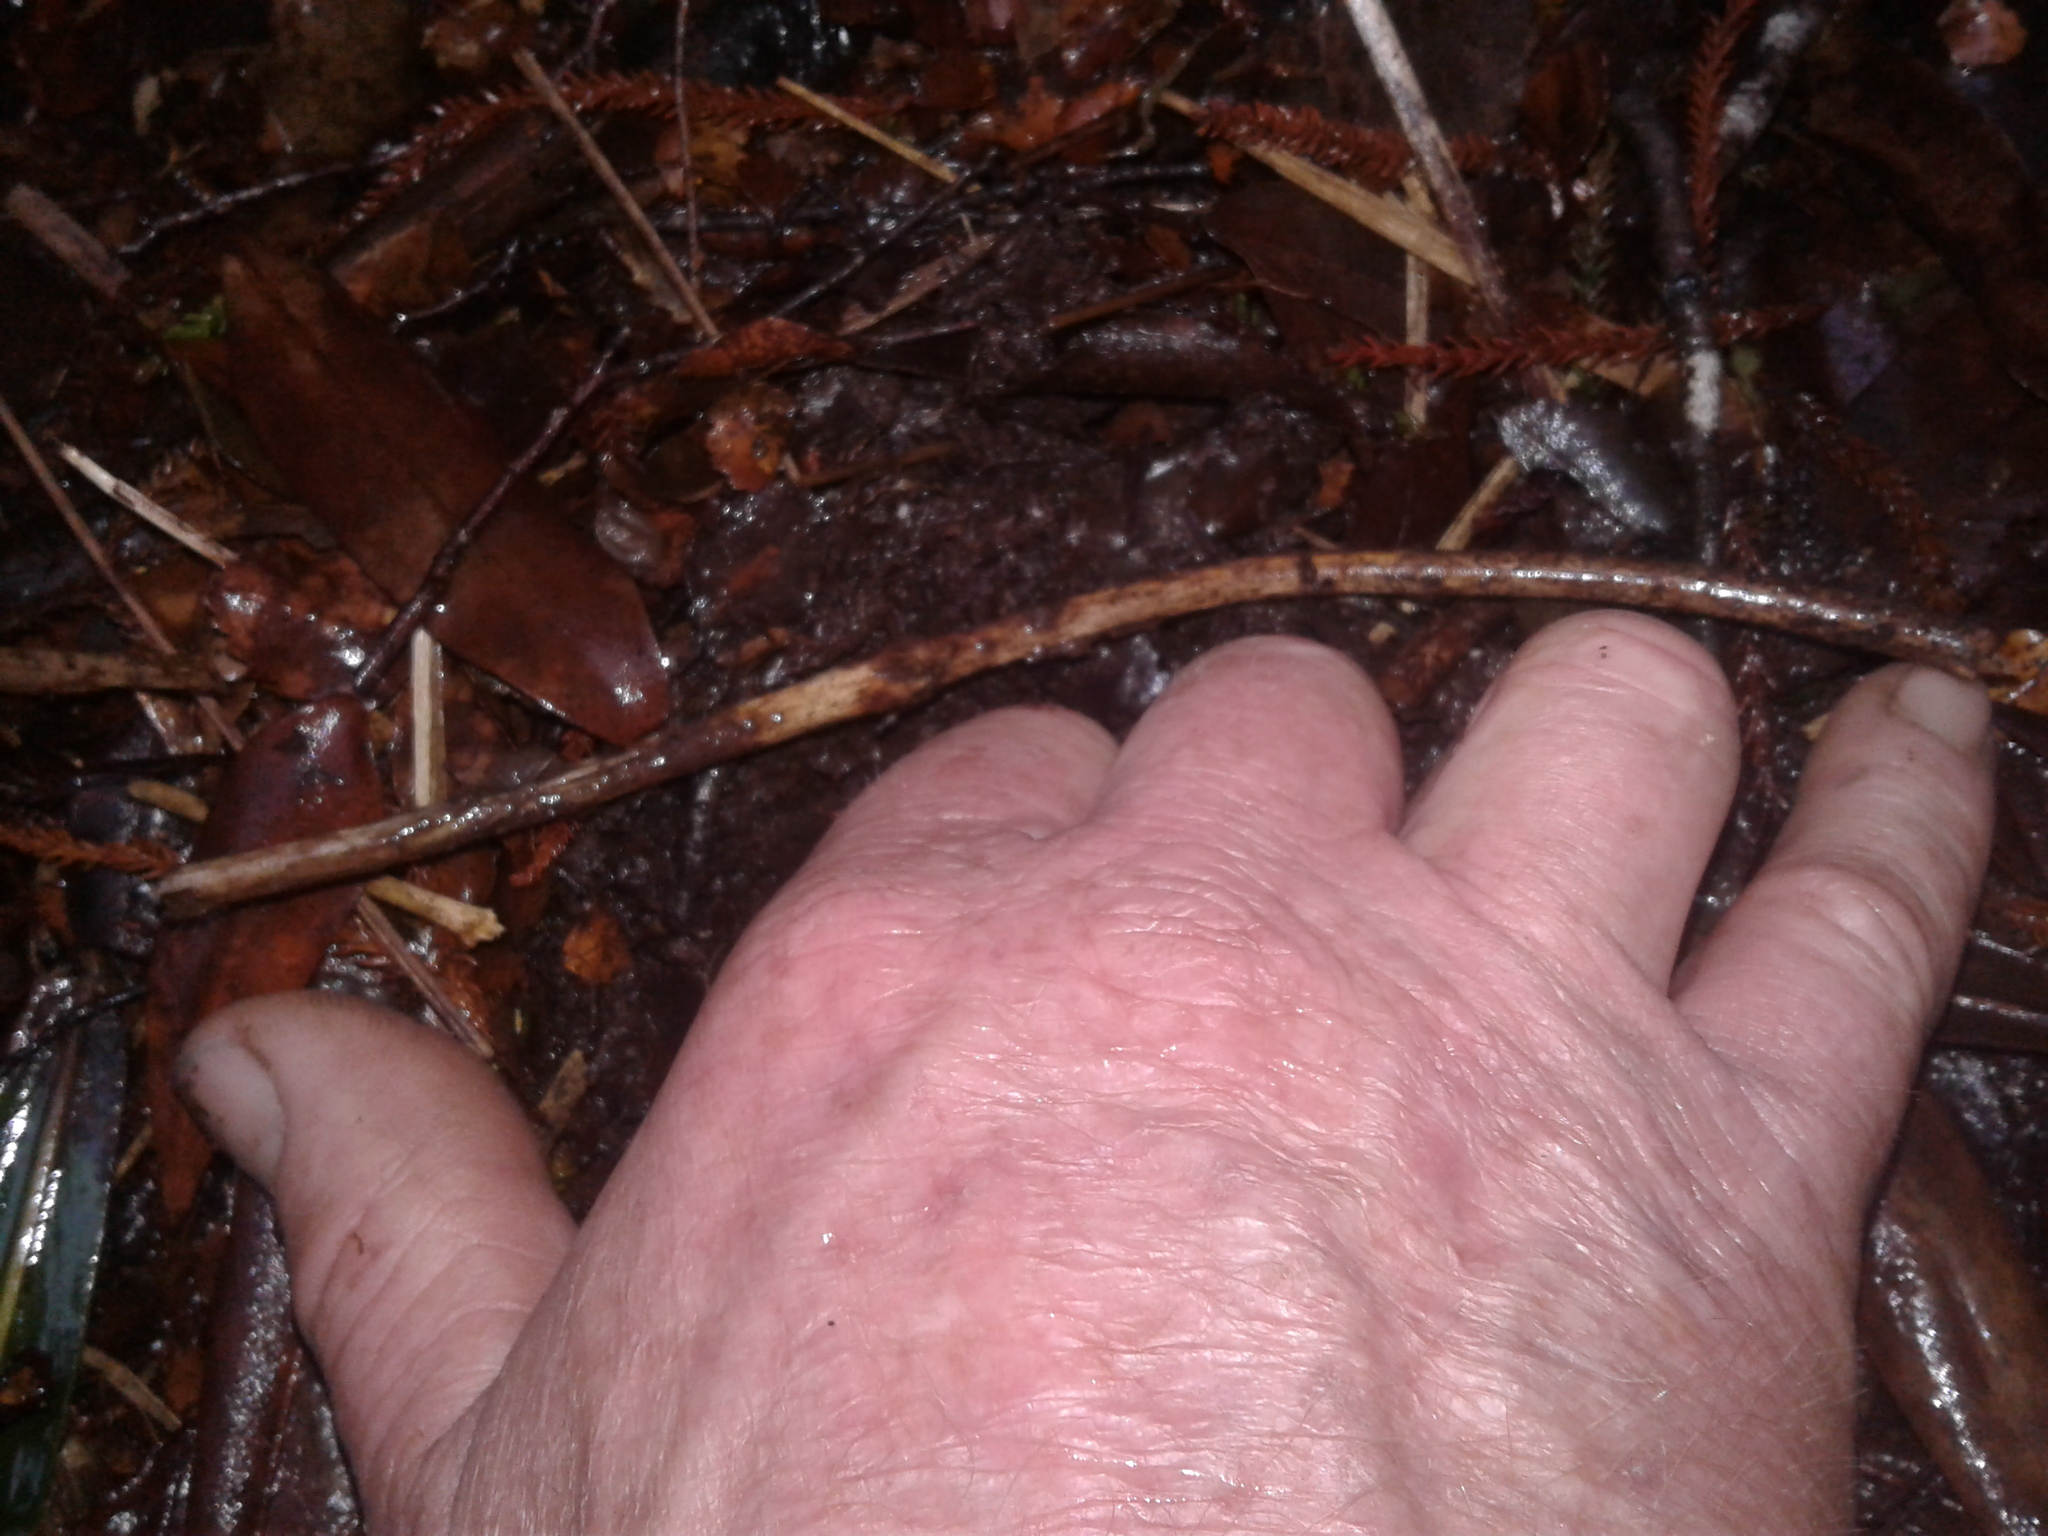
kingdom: Animalia
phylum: Chordata
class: Aves
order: Apterygiformes
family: Apterygidae
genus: Apteryx
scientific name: Apteryx haastii
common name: Great spotted kiwi
